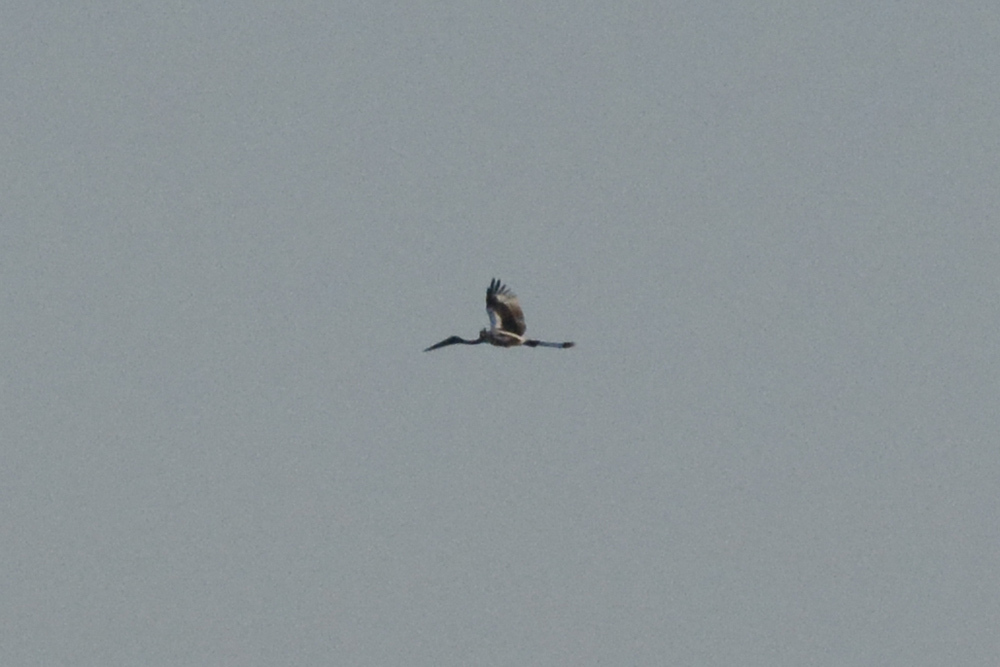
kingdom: Animalia
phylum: Chordata
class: Aves
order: Ciconiiformes
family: Ciconiidae
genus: Ephippiorhynchus
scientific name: Ephippiorhynchus asiaticus
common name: Black-necked stork
